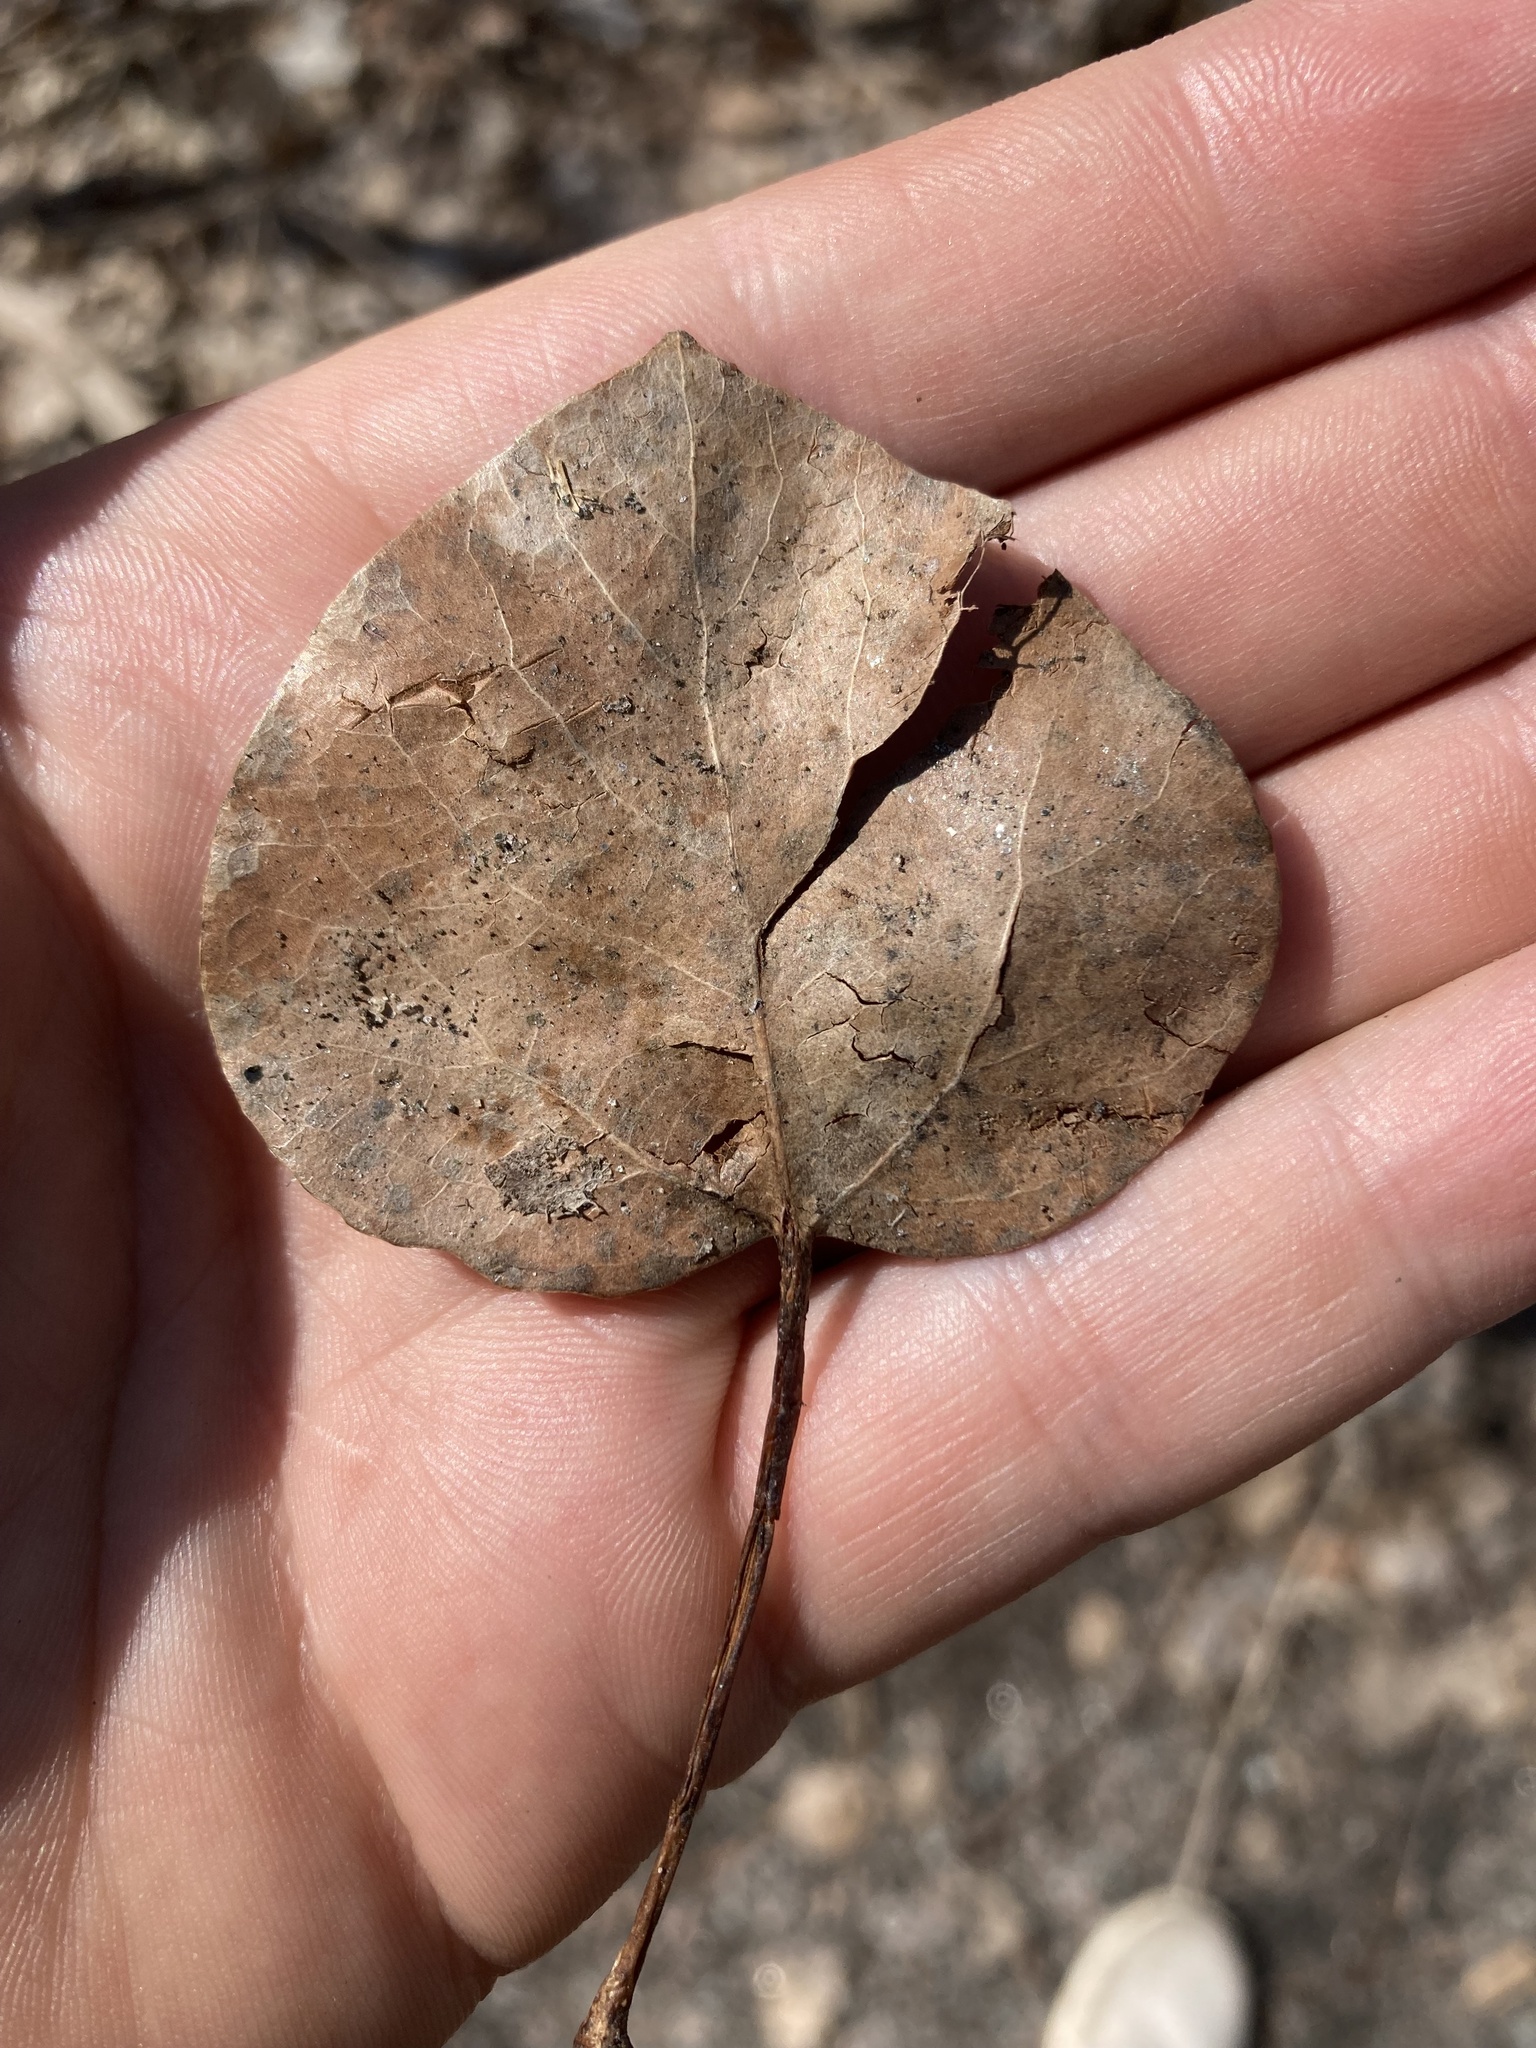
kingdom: Plantae
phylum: Tracheophyta
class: Magnoliopsida
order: Malpighiales
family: Salicaceae
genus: Populus
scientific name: Populus tremuloides
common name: Quaking aspen
